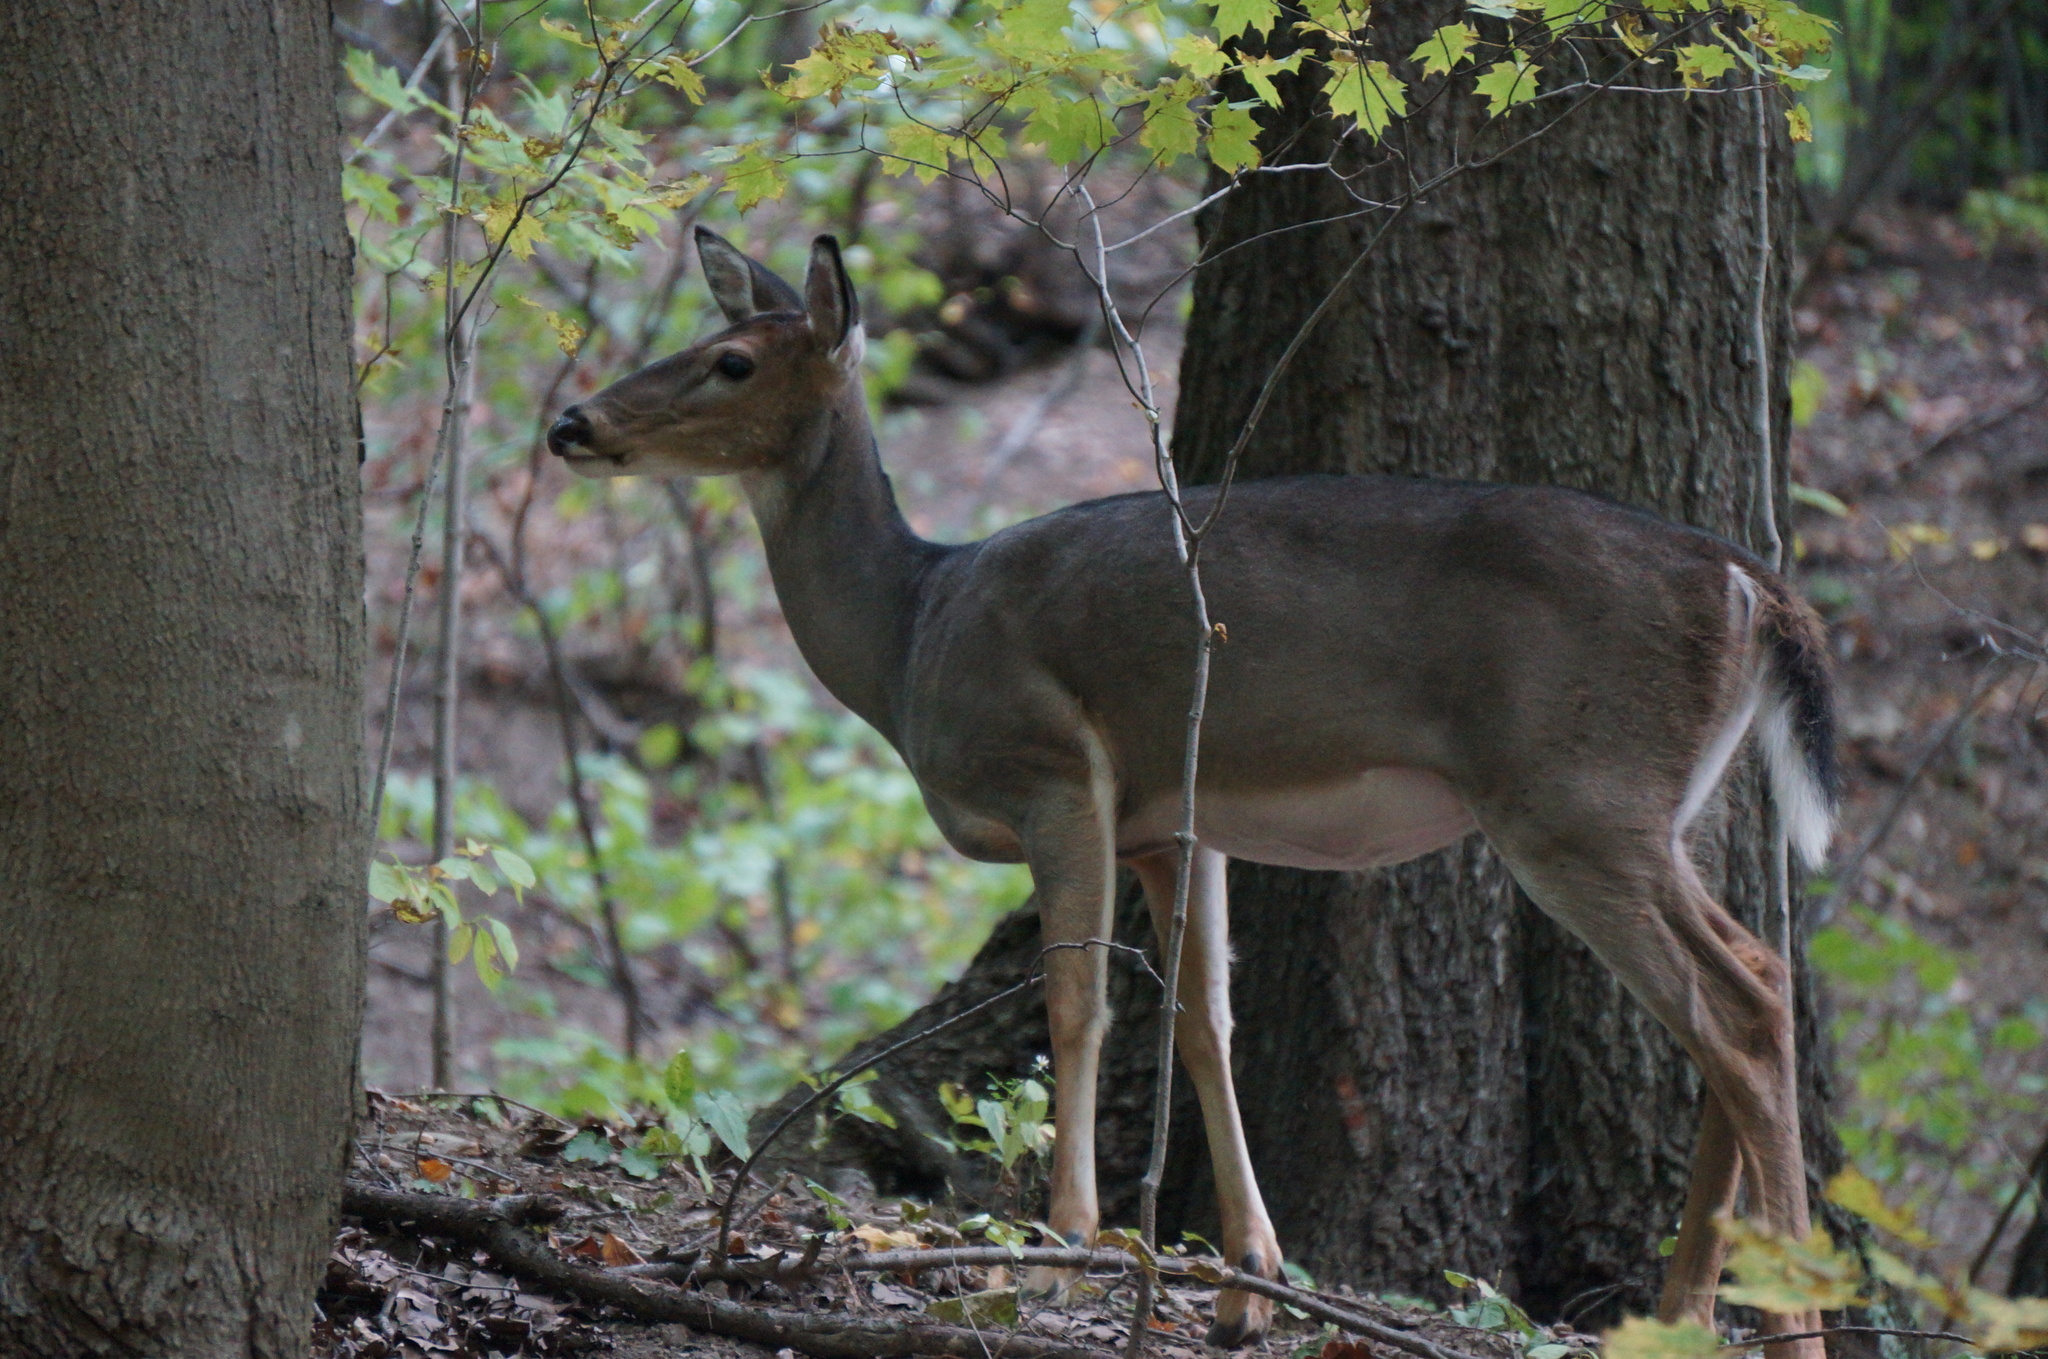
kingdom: Animalia
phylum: Chordata
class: Mammalia
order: Artiodactyla
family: Cervidae
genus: Odocoileus
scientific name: Odocoileus virginianus
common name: White-tailed deer
